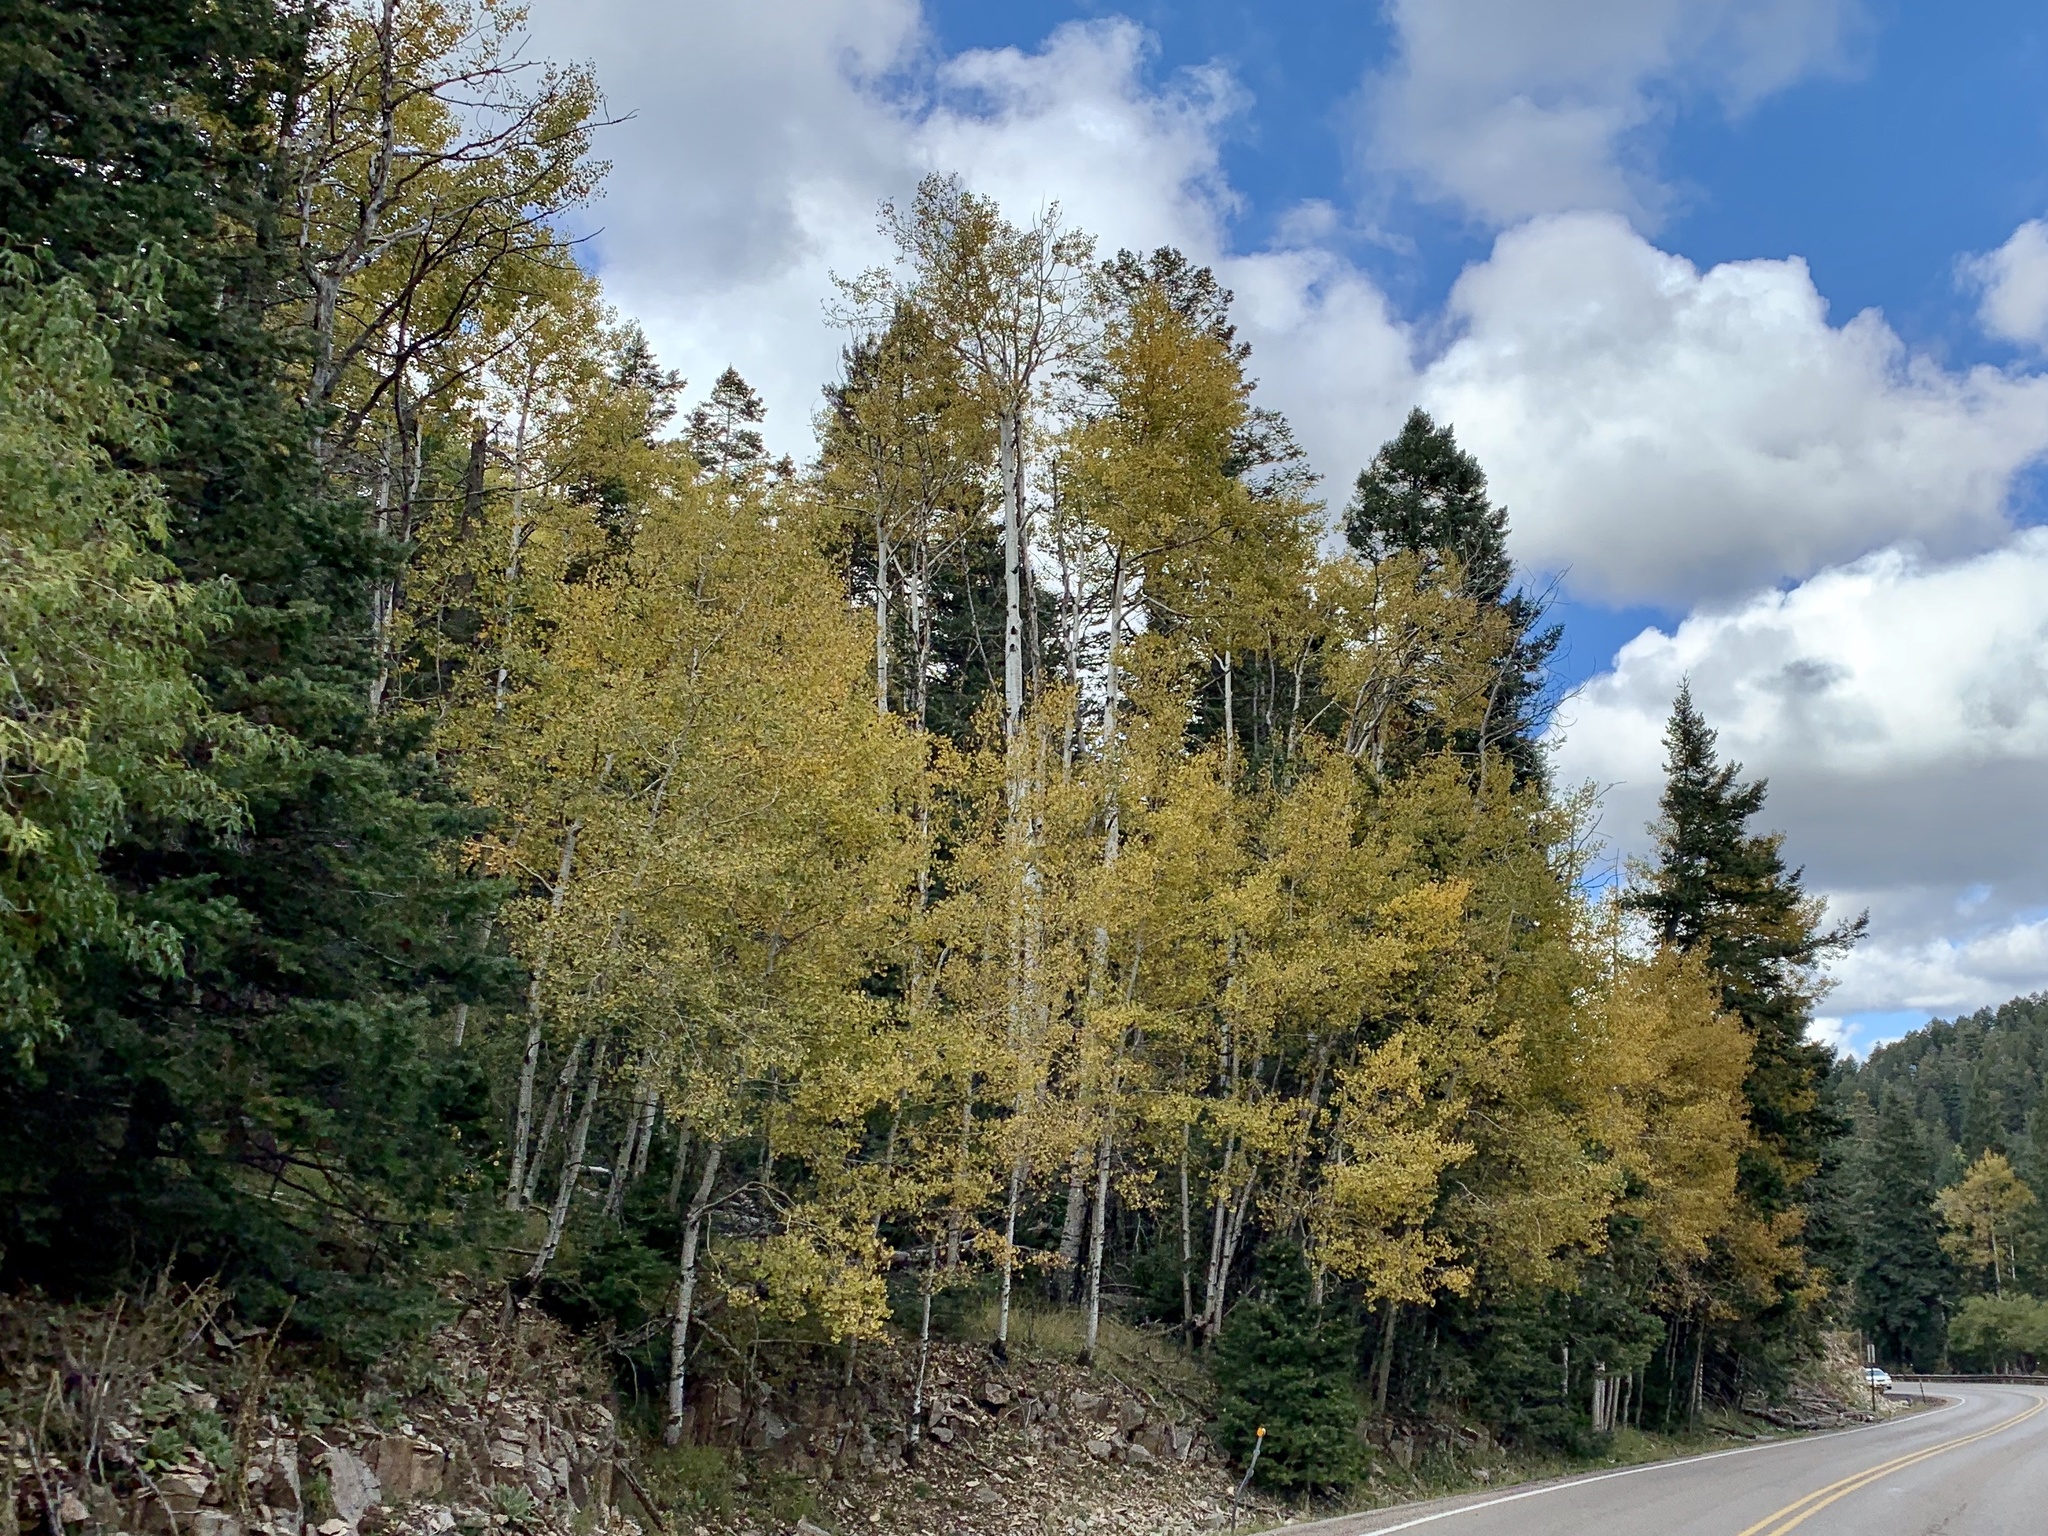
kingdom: Plantae
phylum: Tracheophyta
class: Magnoliopsida
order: Malpighiales
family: Salicaceae
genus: Populus
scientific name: Populus tremuloides
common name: Quaking aspen
